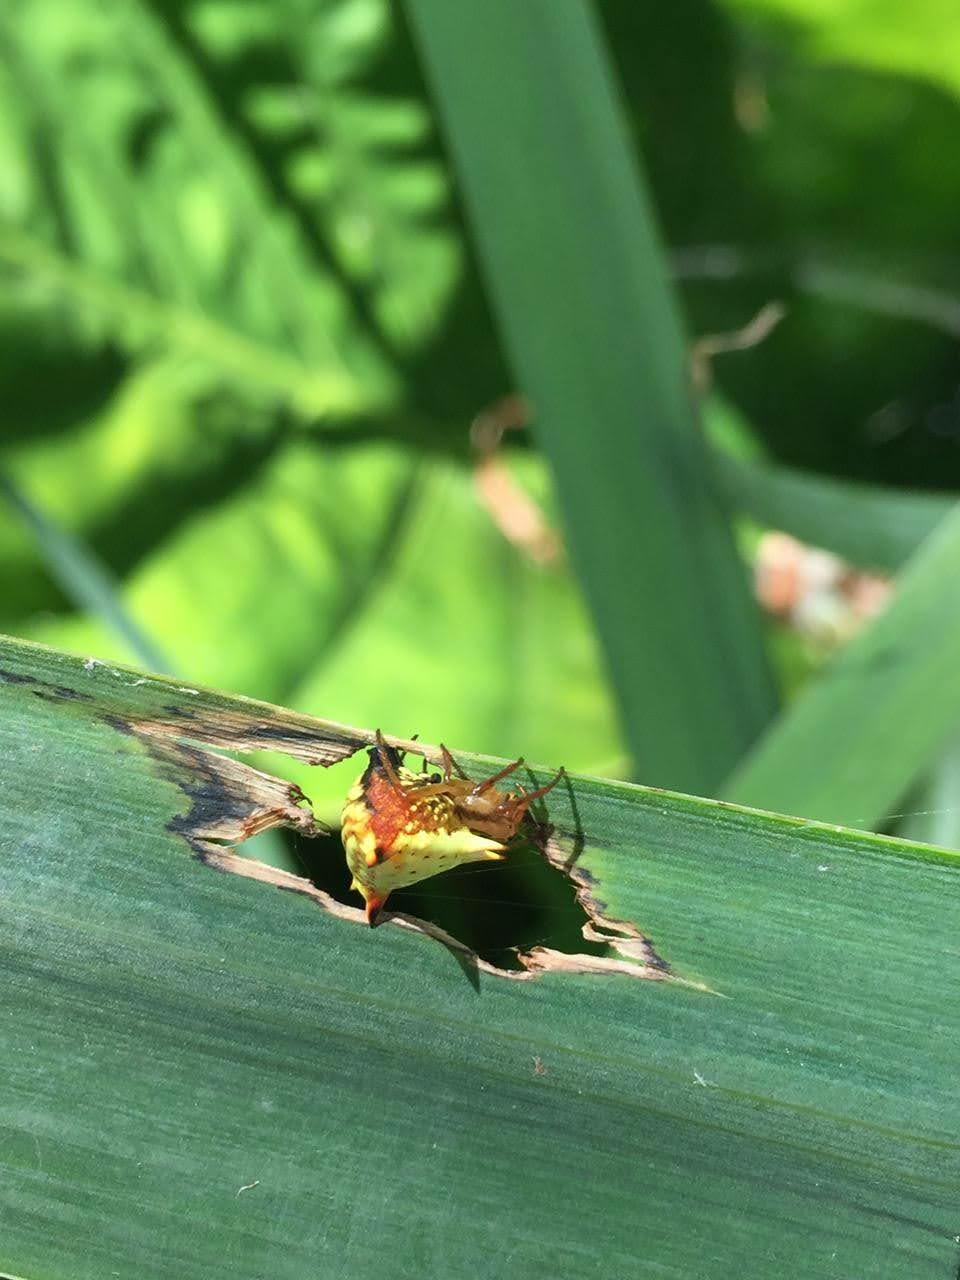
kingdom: Animalia
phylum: Arthropoda
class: Arachnida
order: Araneae
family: Araneidae
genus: Micrathena
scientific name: Micrathena furcata
